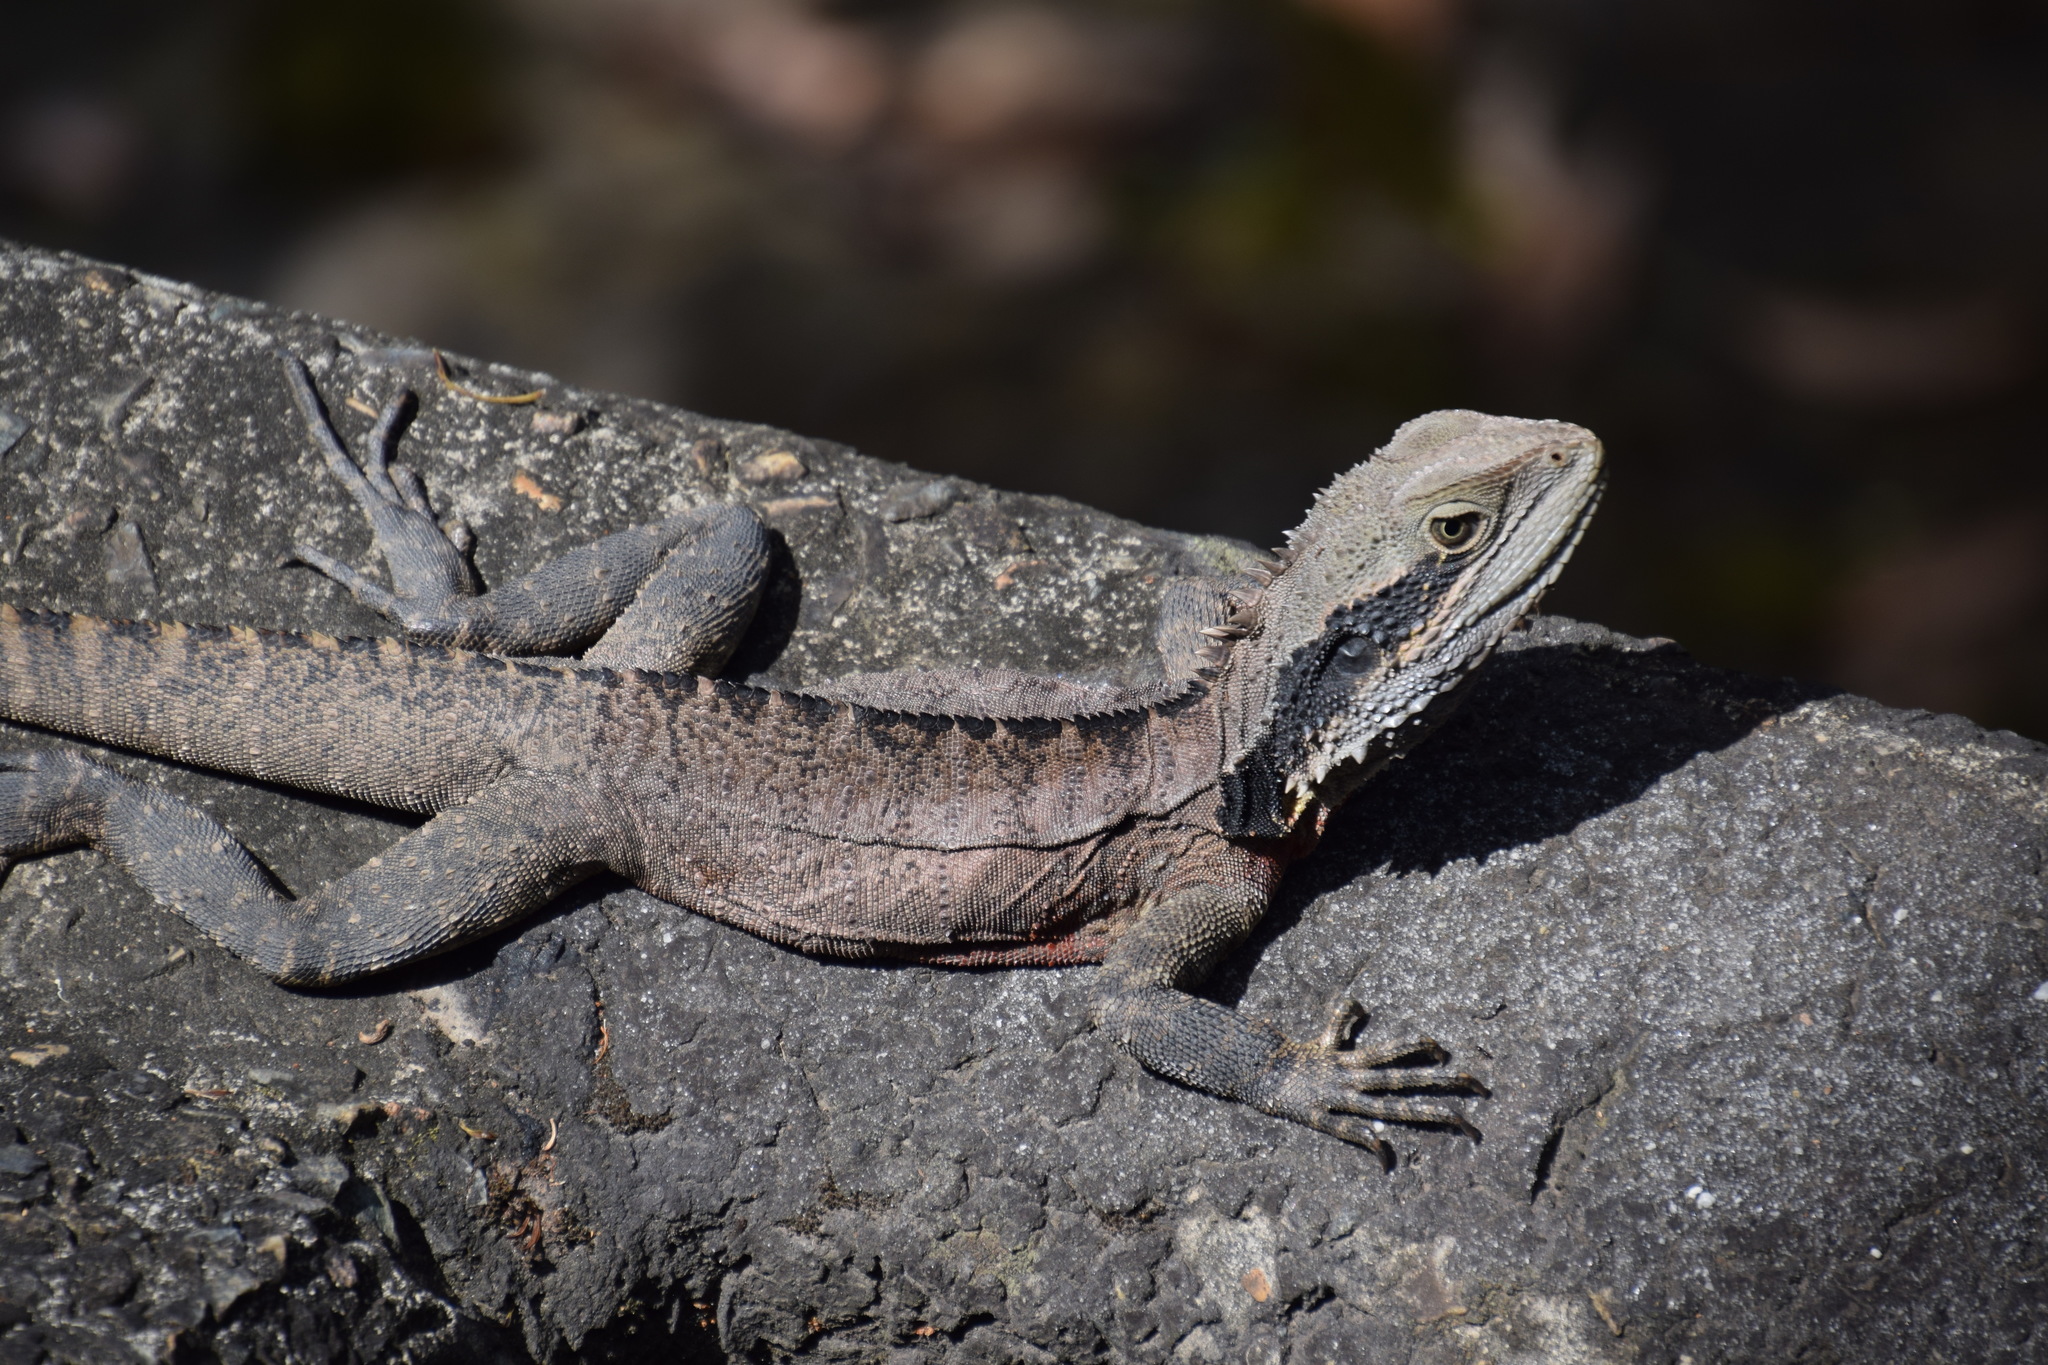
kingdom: Animalia
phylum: Chordata
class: Squamata
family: Agamidae
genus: Intellagama
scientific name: Intellagama lesueurii
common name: Eastern water dragon
